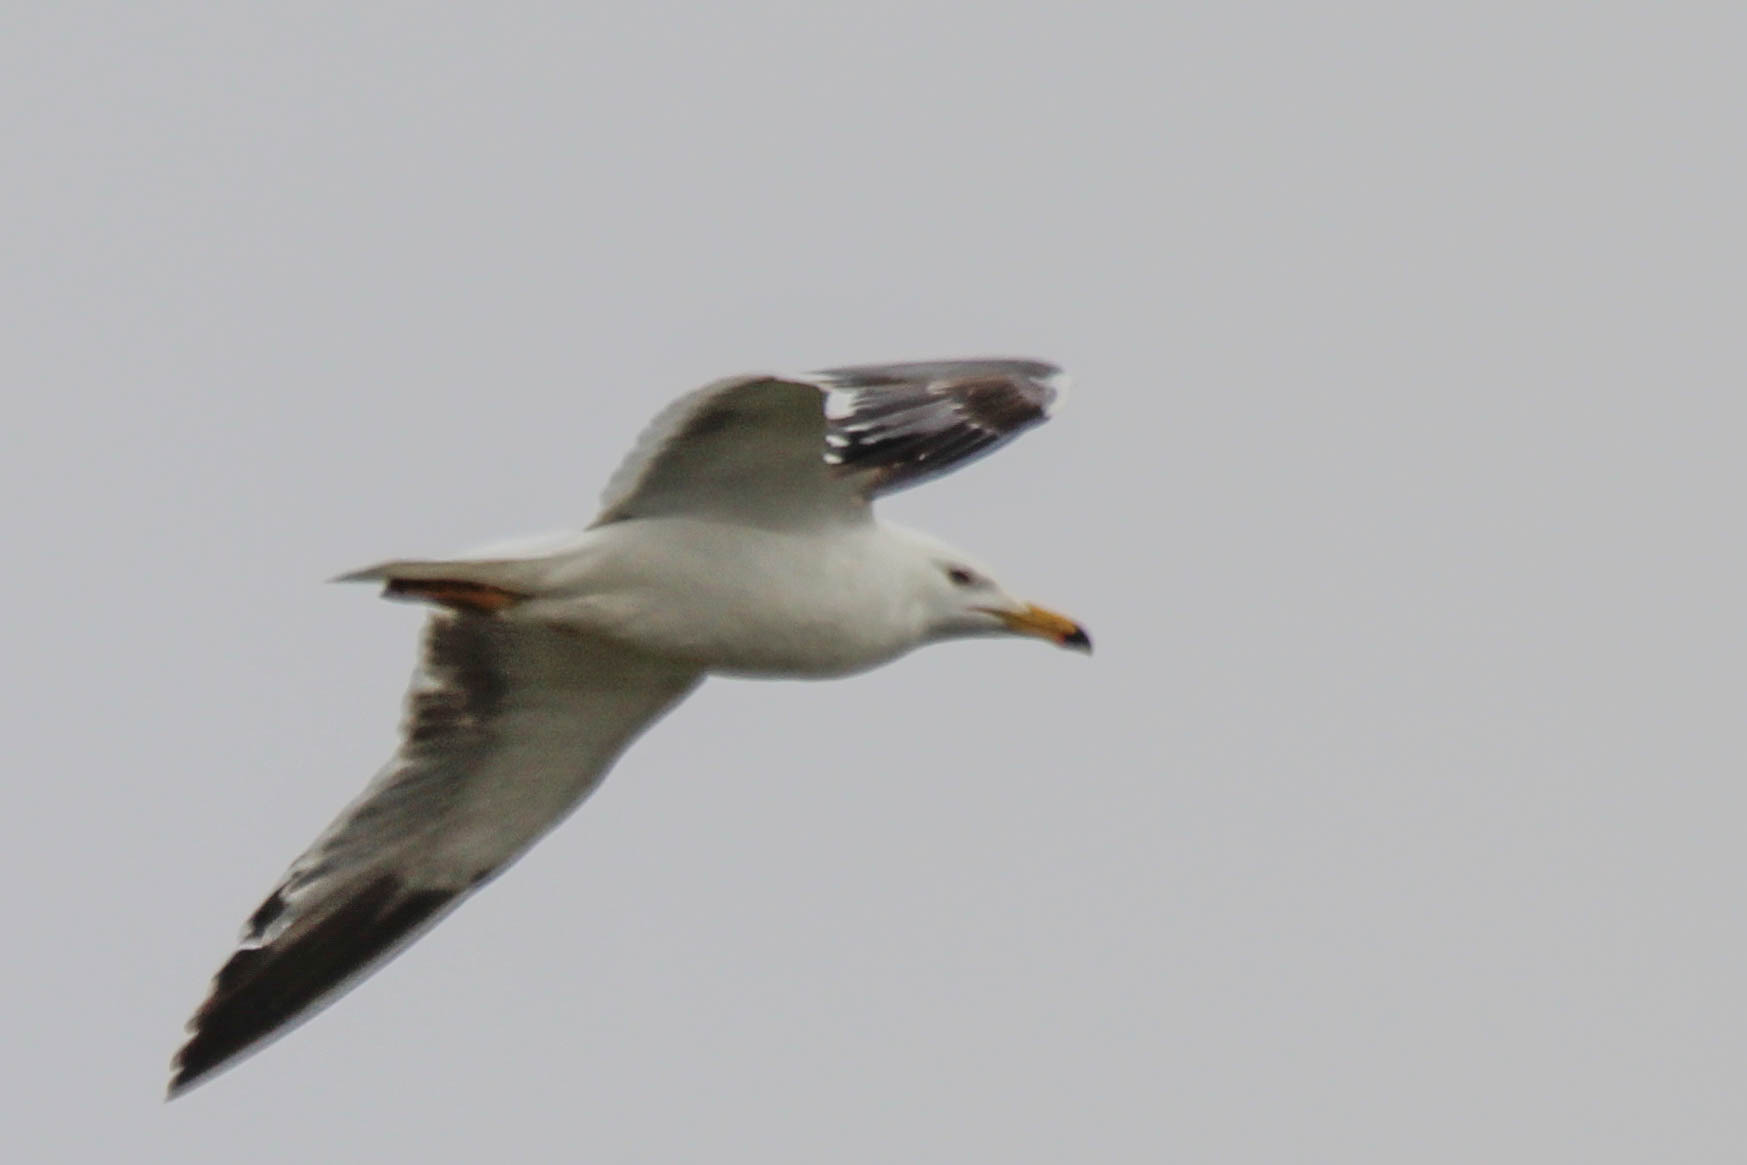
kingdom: Animalia
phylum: Chordata
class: Aves
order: Charadriiformes
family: Laridae
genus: Larus
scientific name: Larus fuscus
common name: Lesser black-backed gull
